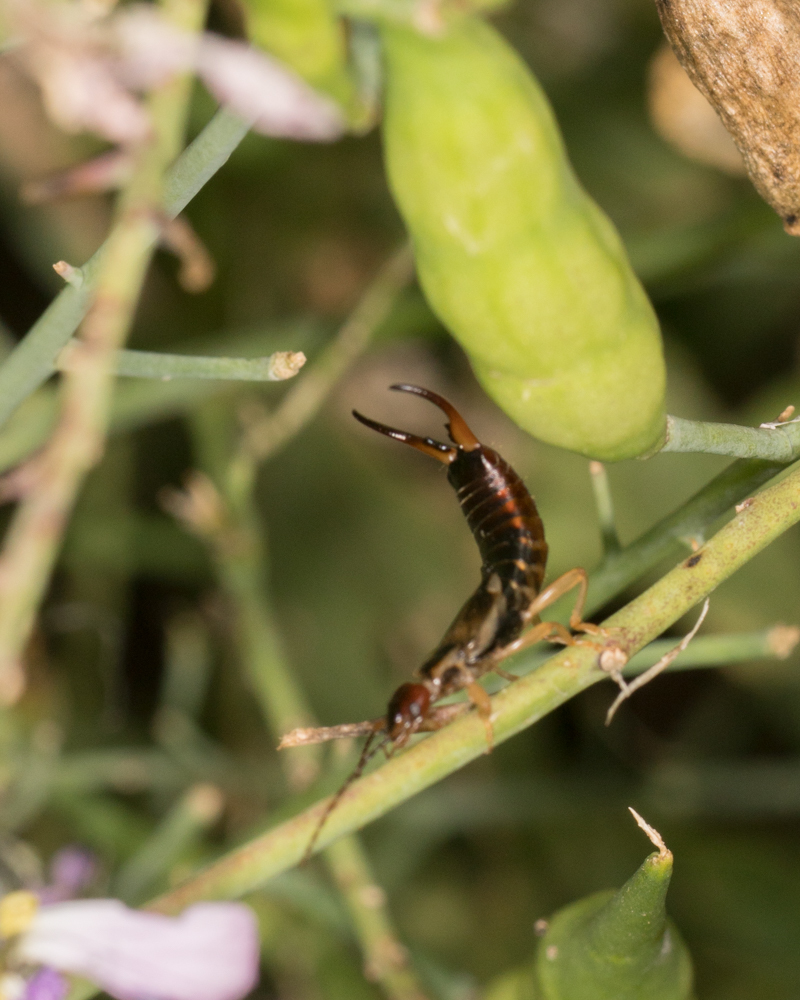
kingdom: Animalia
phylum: Arthropoda
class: Insecta
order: Dermaptera
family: Forficulidae
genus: Forficula
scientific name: Forficula
